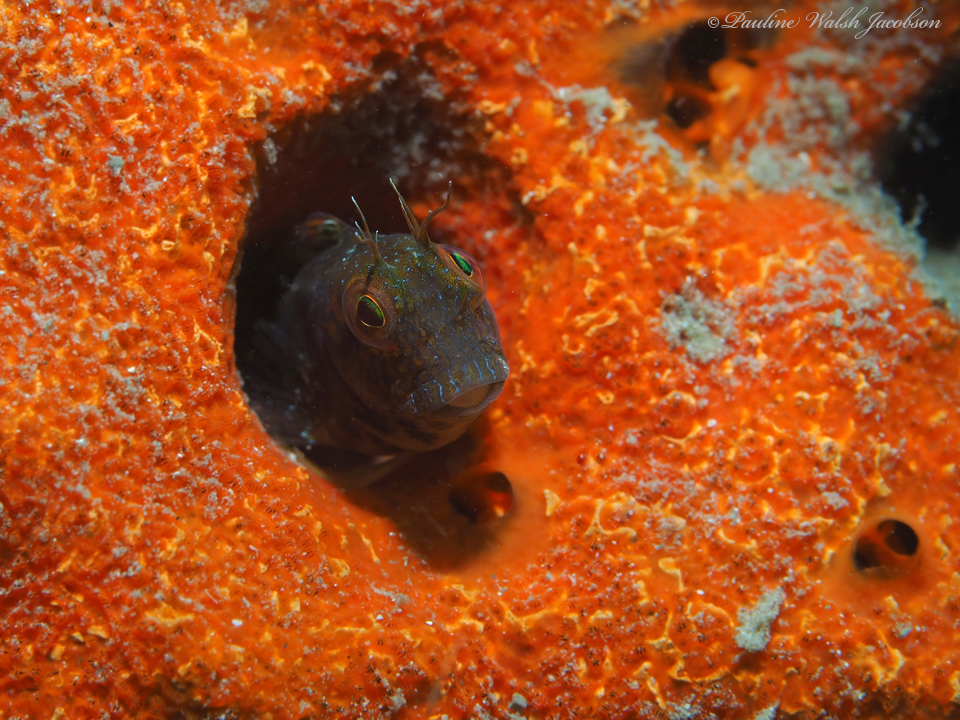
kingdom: Animalia
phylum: Chordata
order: Perciformes
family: Blenniidae
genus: Parablennius
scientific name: Parablennius marmoreus
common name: Seaweed blenny
